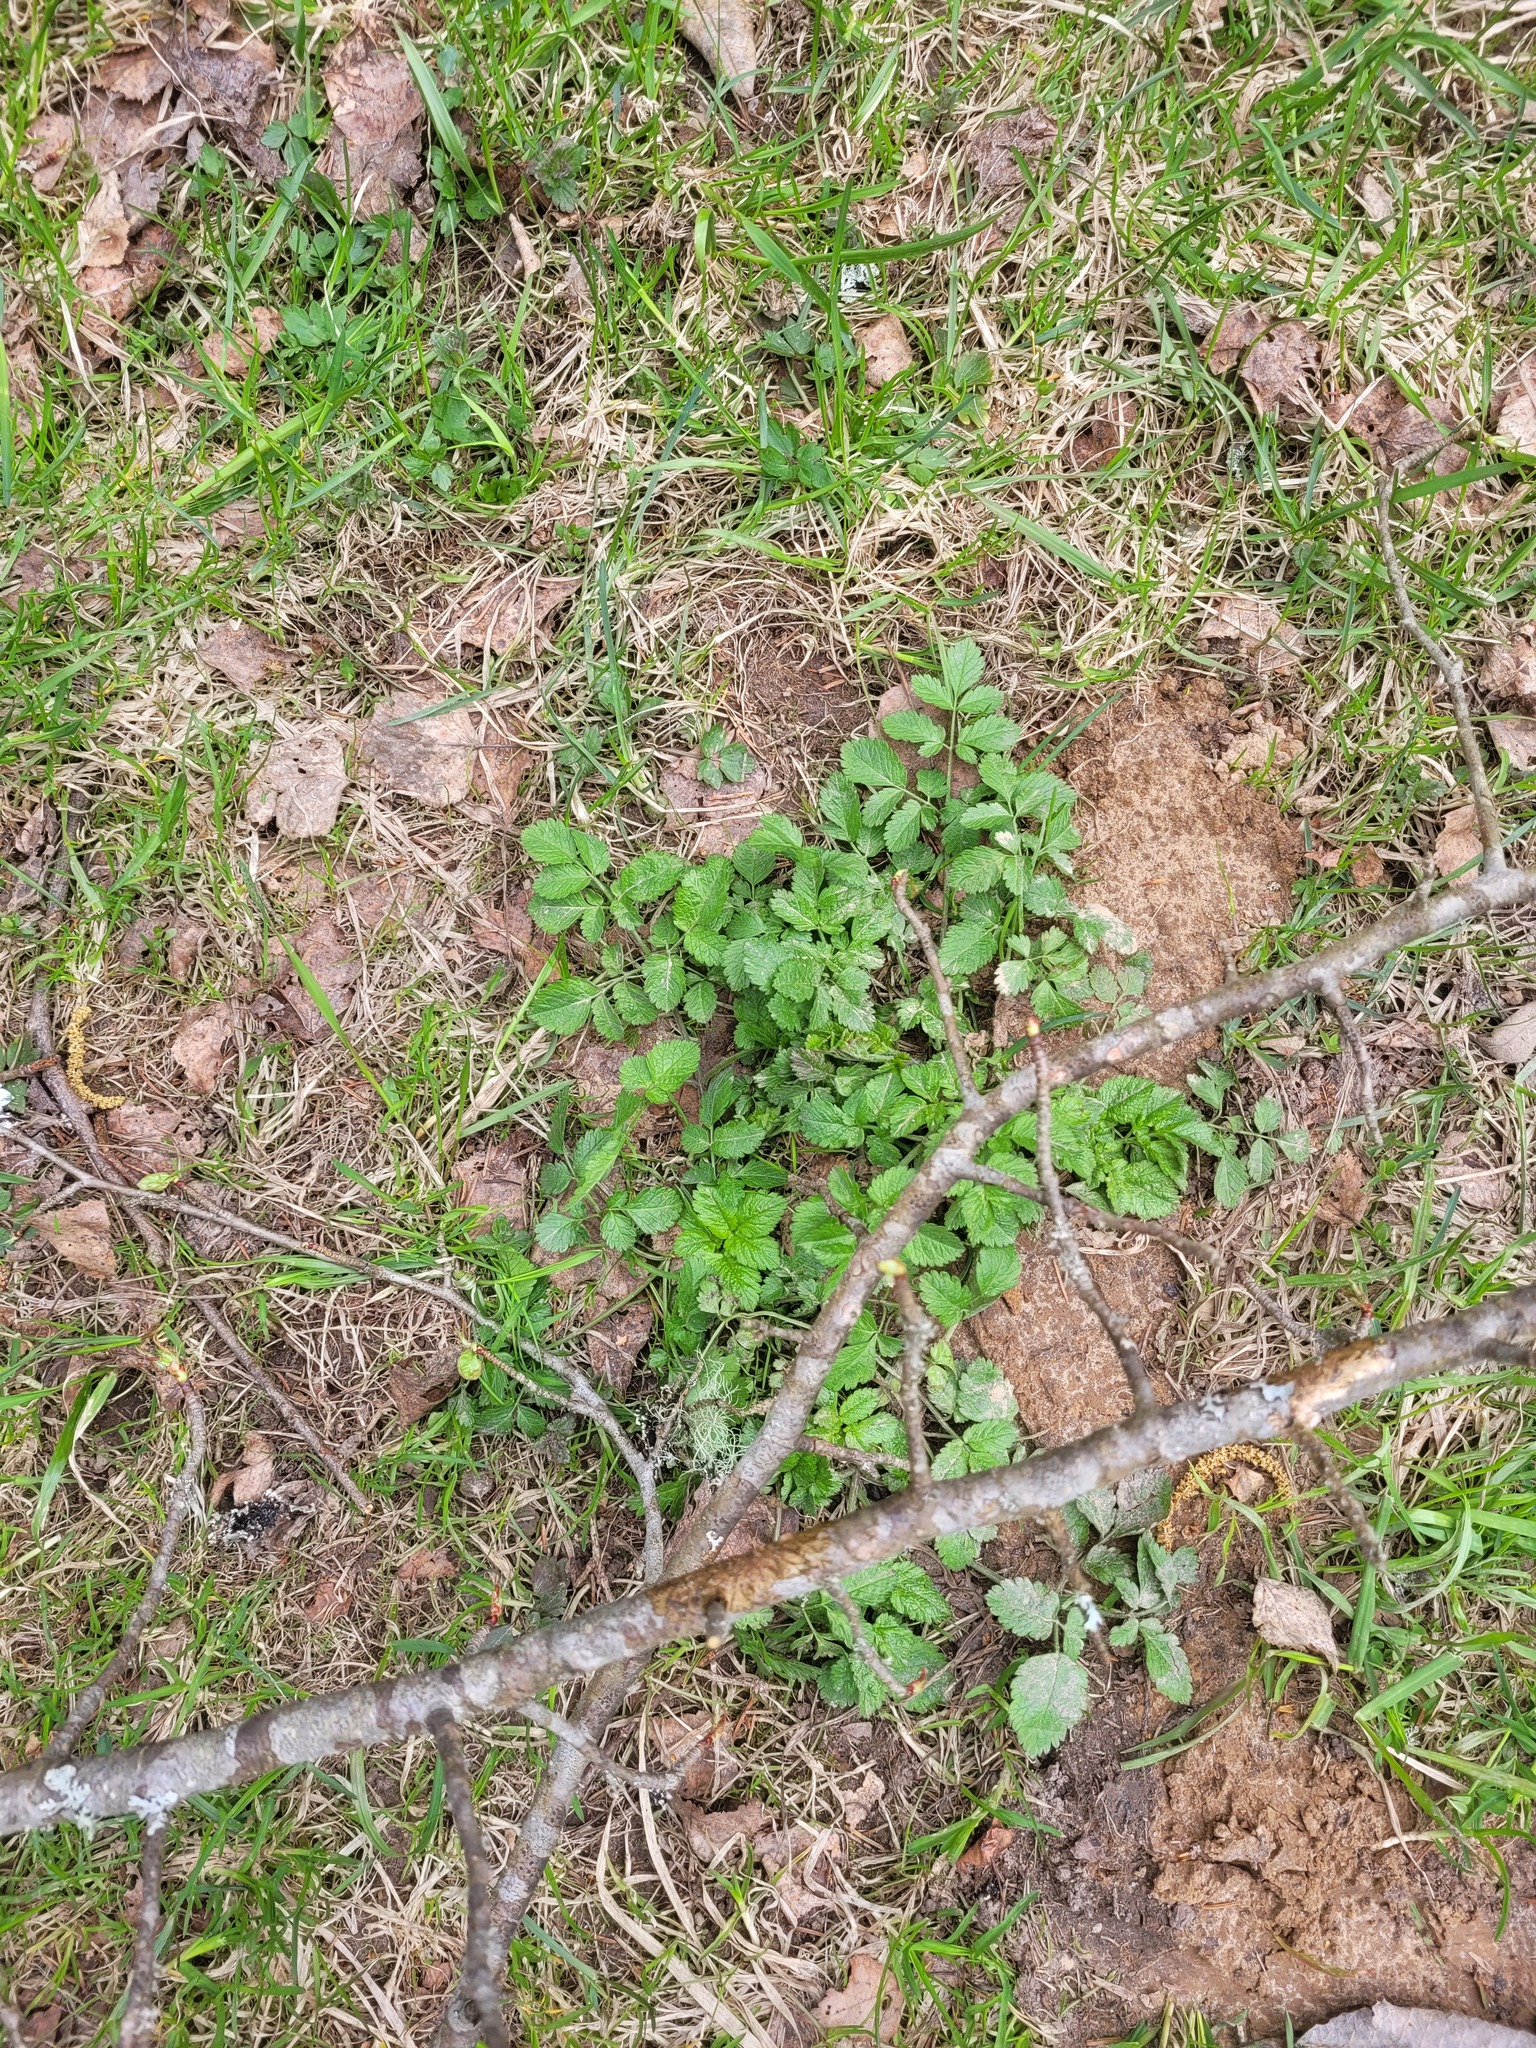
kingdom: Plantae
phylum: Tracheophyta
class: Magnoliopsida
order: Apiales
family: Apiaceae
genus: Chaerophyllum
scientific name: Chaerophyllum aromaticum
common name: Broadleaf chervil
